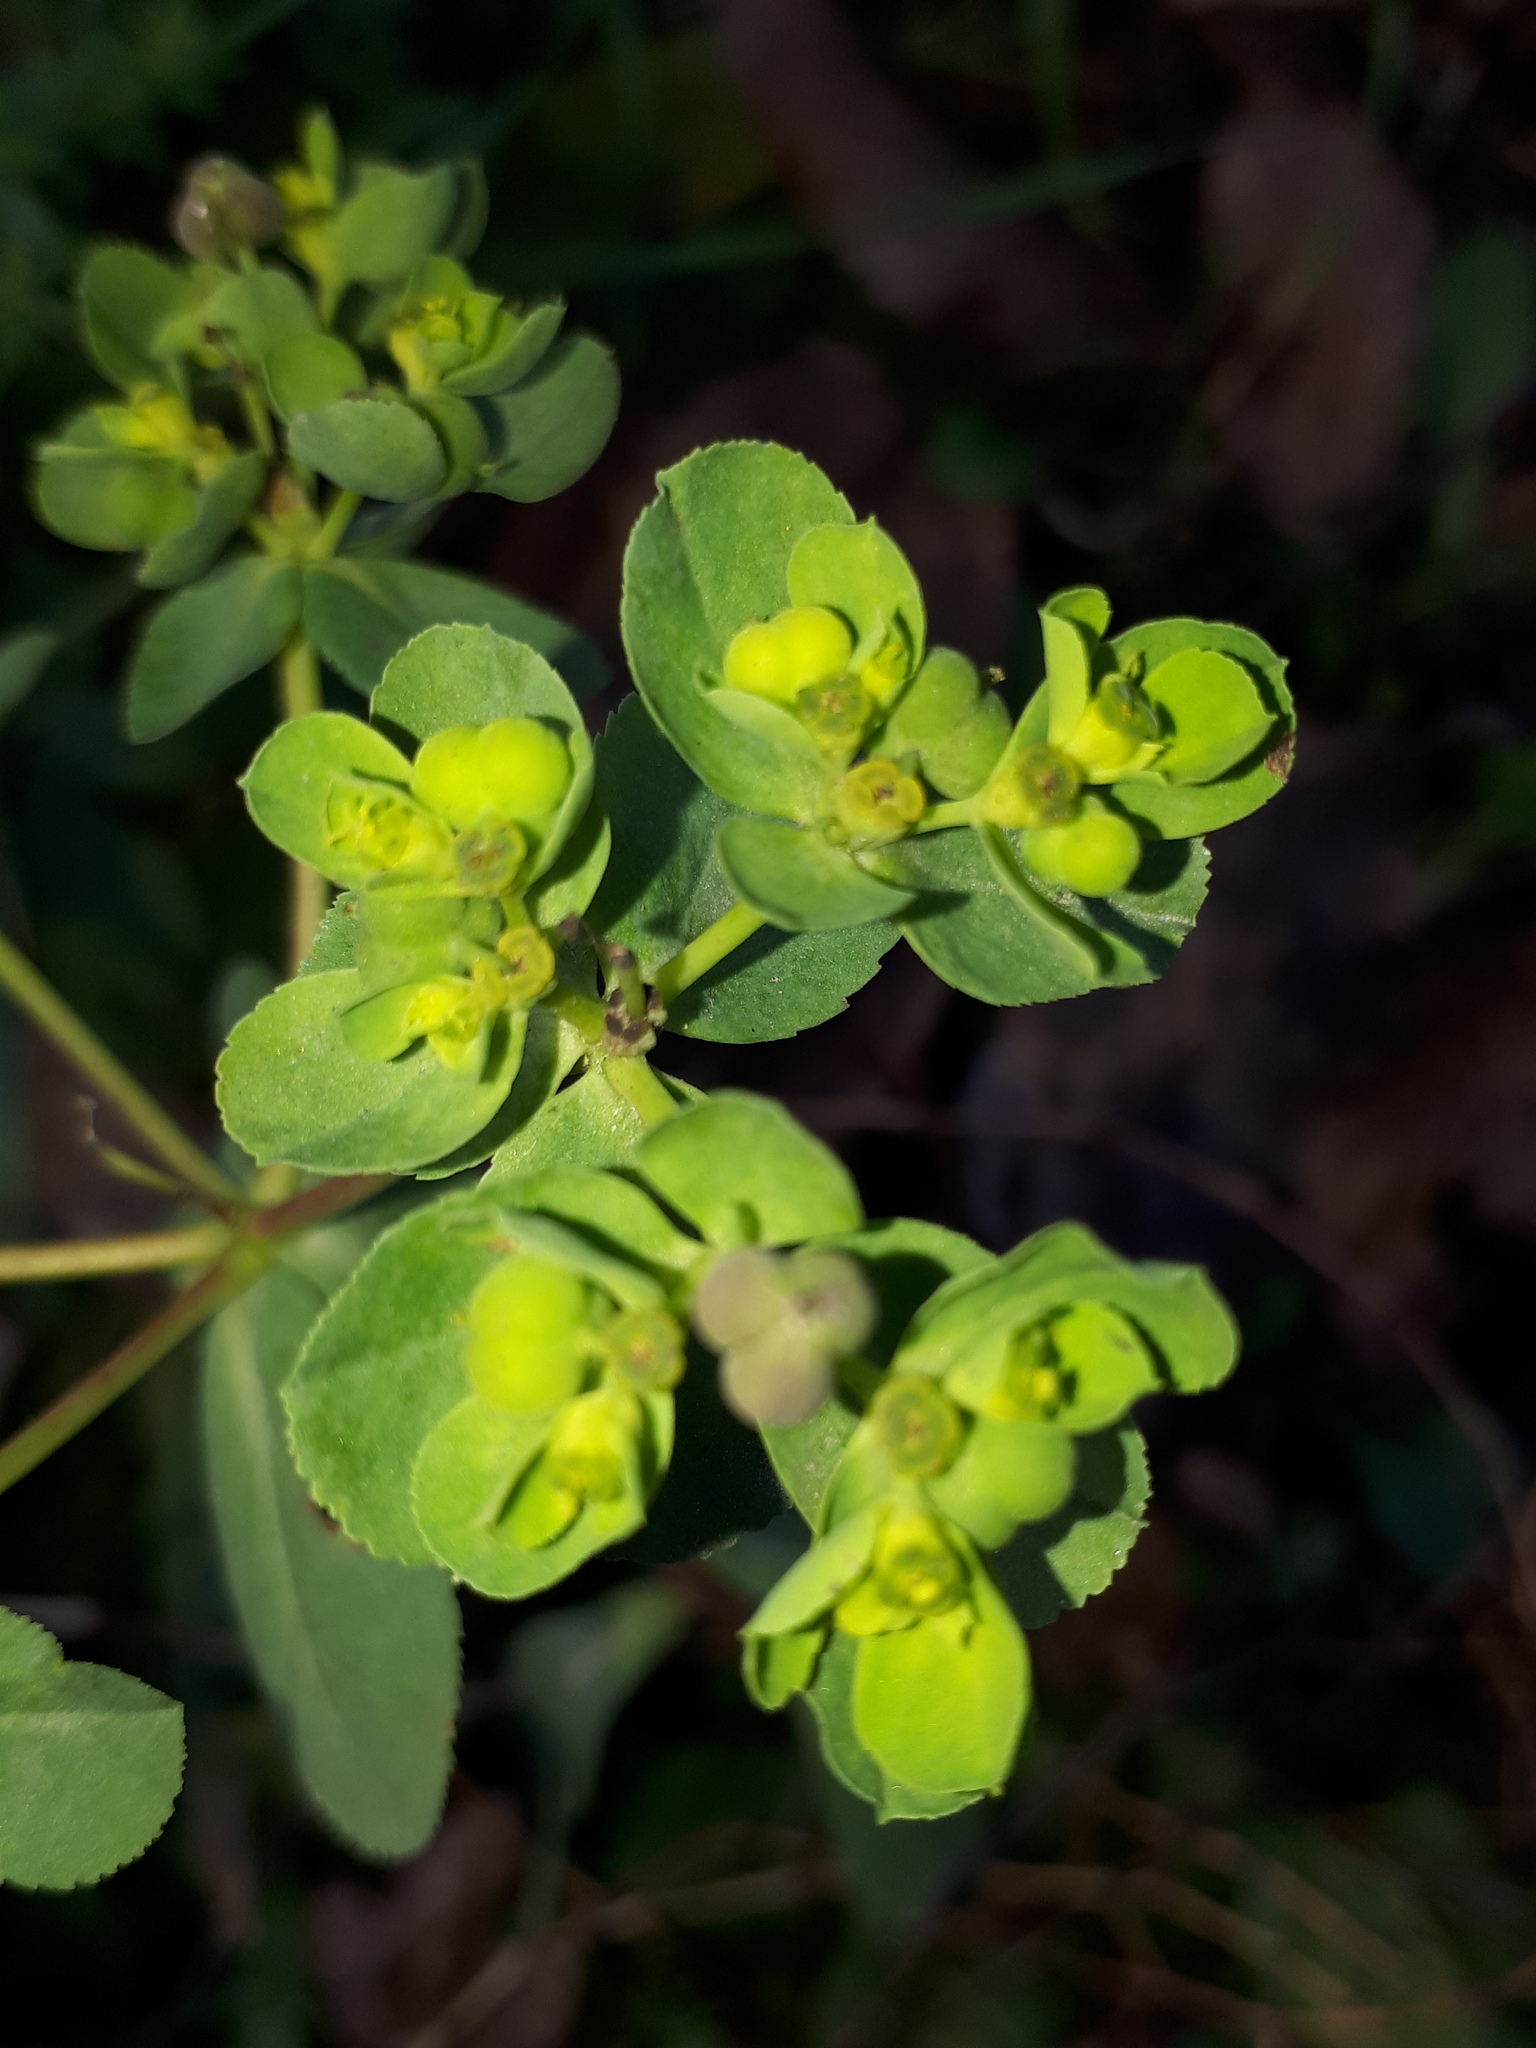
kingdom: Plantae
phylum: Tracheophyta
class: Magnoliopsida
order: Malpighiales
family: Euphorbiaceae
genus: Euphorbia
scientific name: Euphorbia helioscopia
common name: Sun spurge
